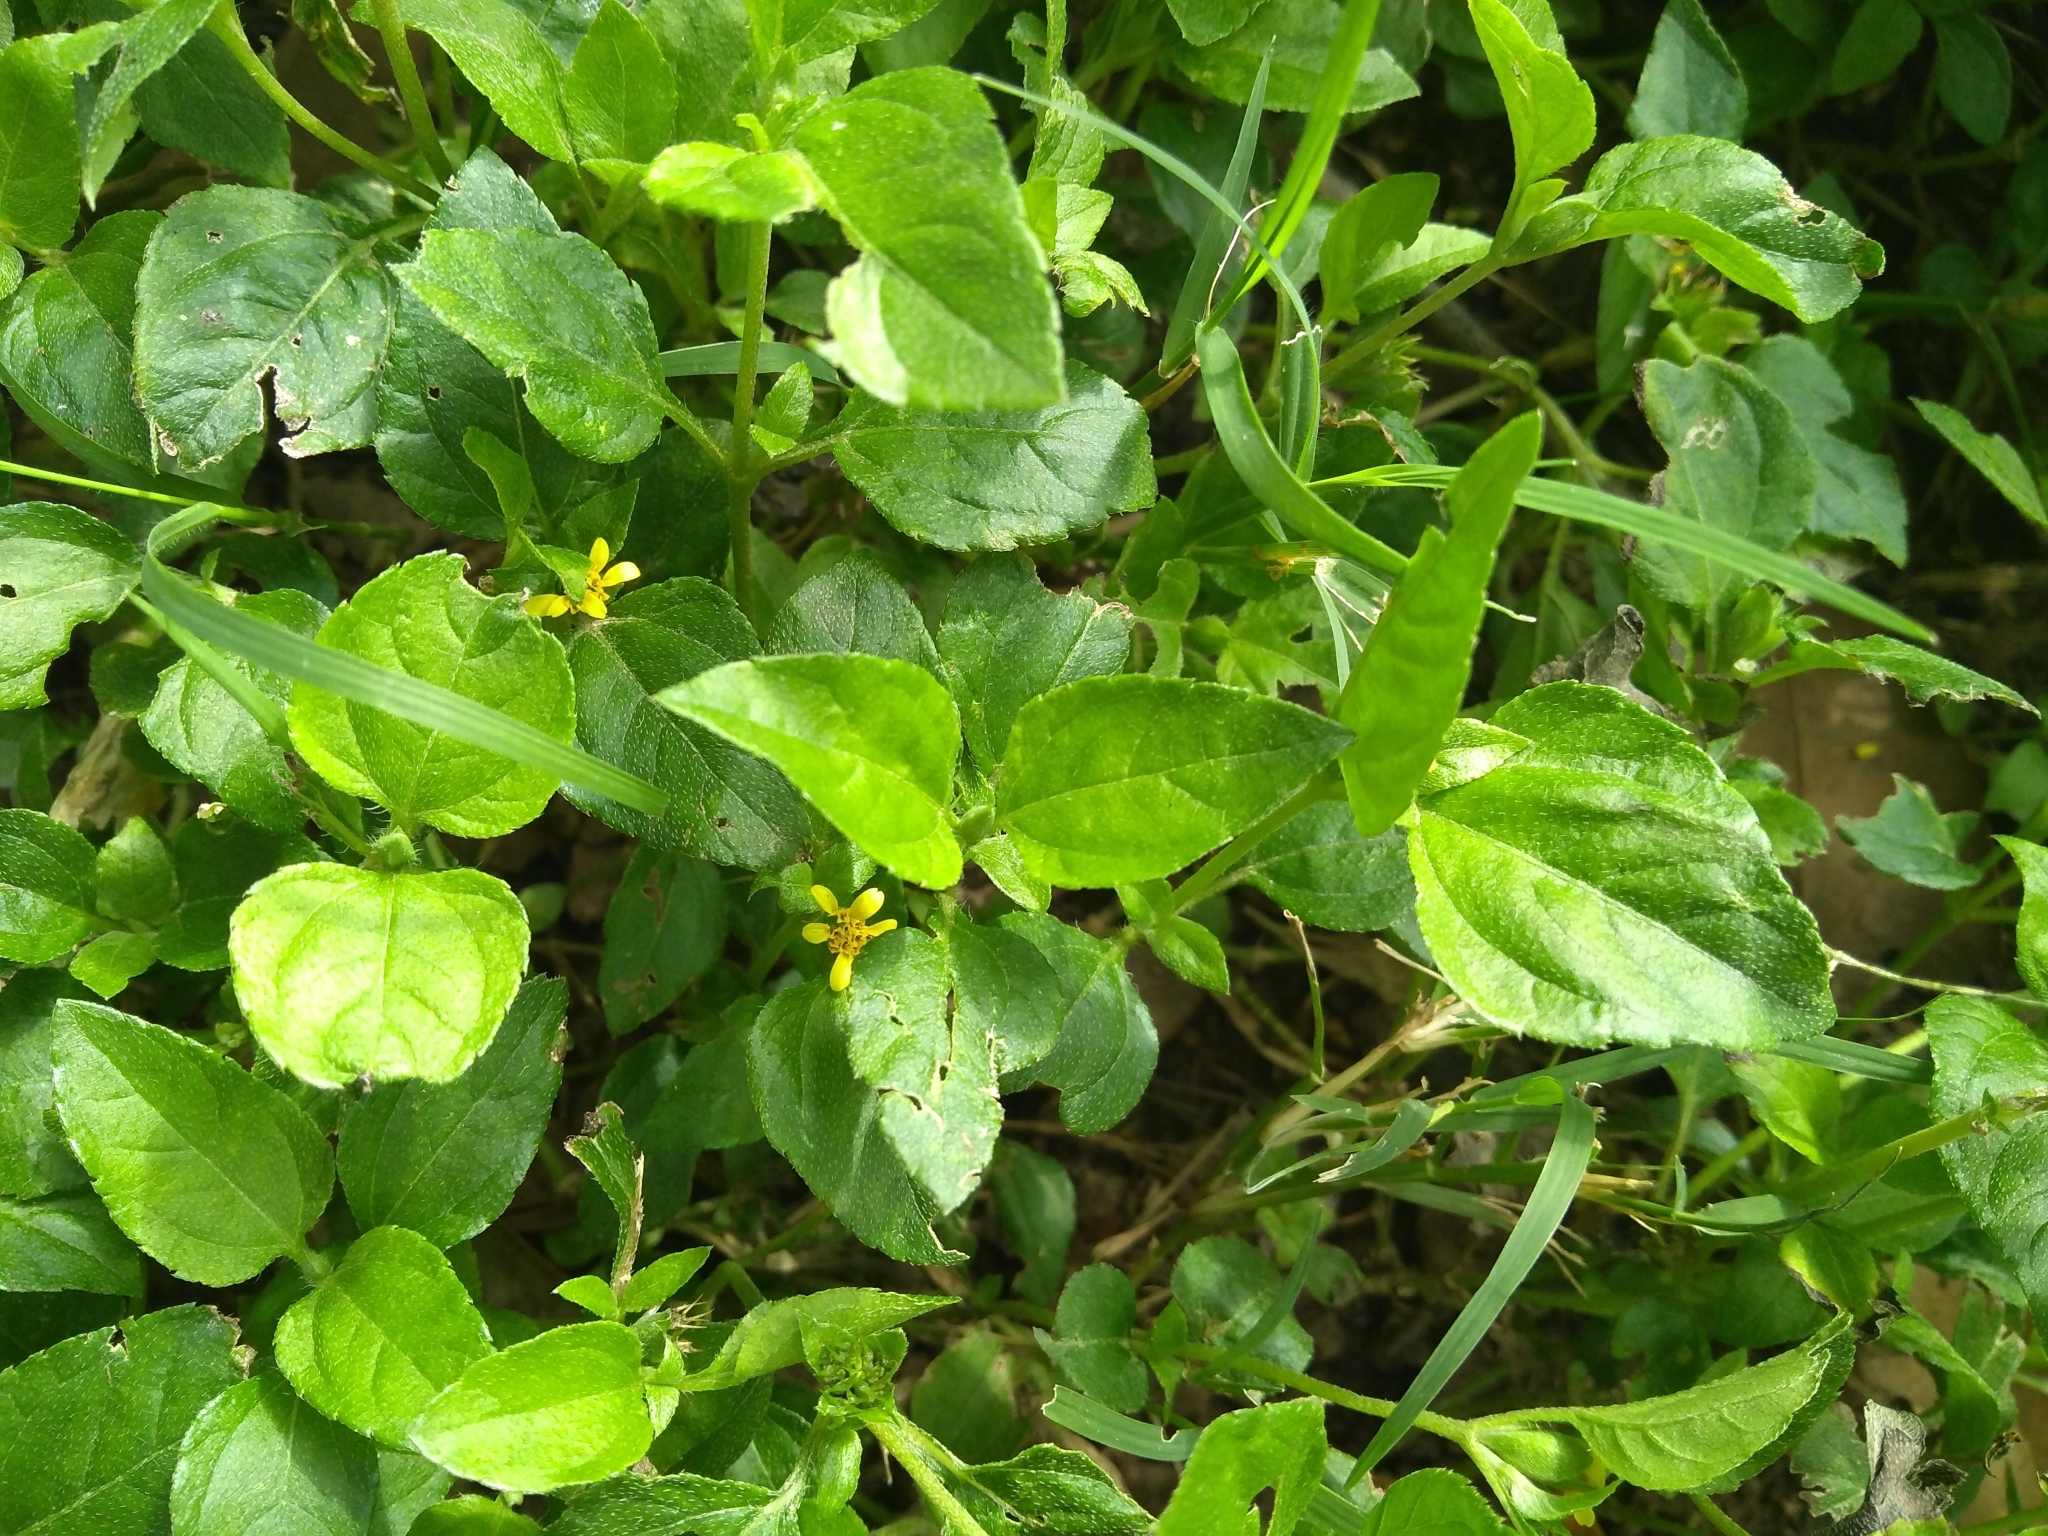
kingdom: Plantae
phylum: Tracheophyta
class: Magnoliopsida
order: Asterales
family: Asteraceae
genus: Calyptocarpus
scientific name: Calyptocarpus vialis
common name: Straggler daisy
